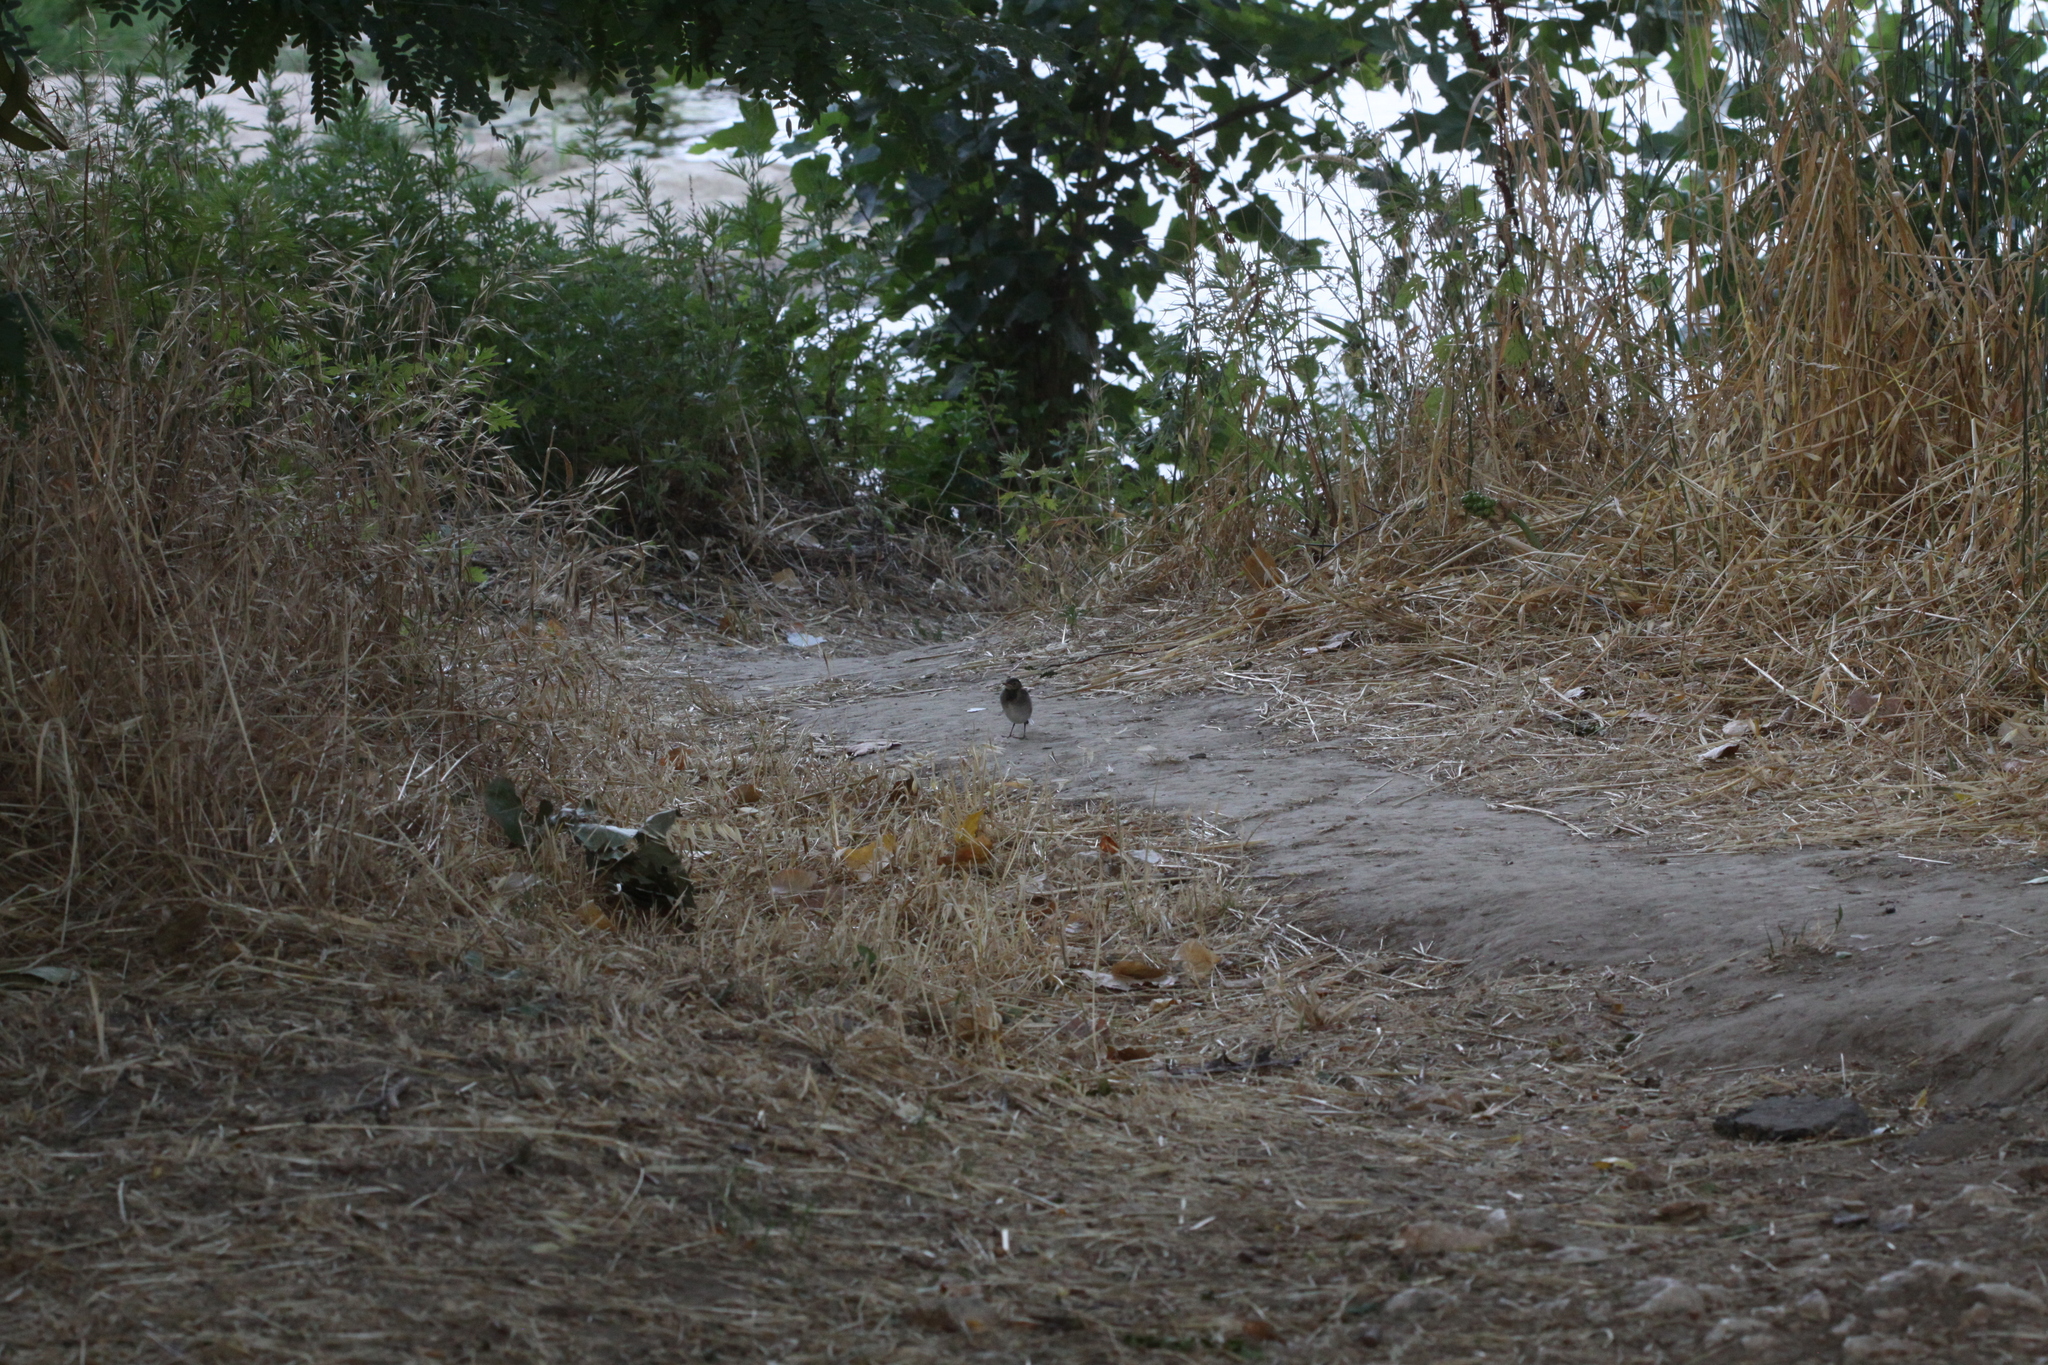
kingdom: Animalia
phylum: Chordata
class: Aves
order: Passeriformes
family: Motacillidae
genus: Motacilla
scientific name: Motacilla alba
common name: White wagtail
